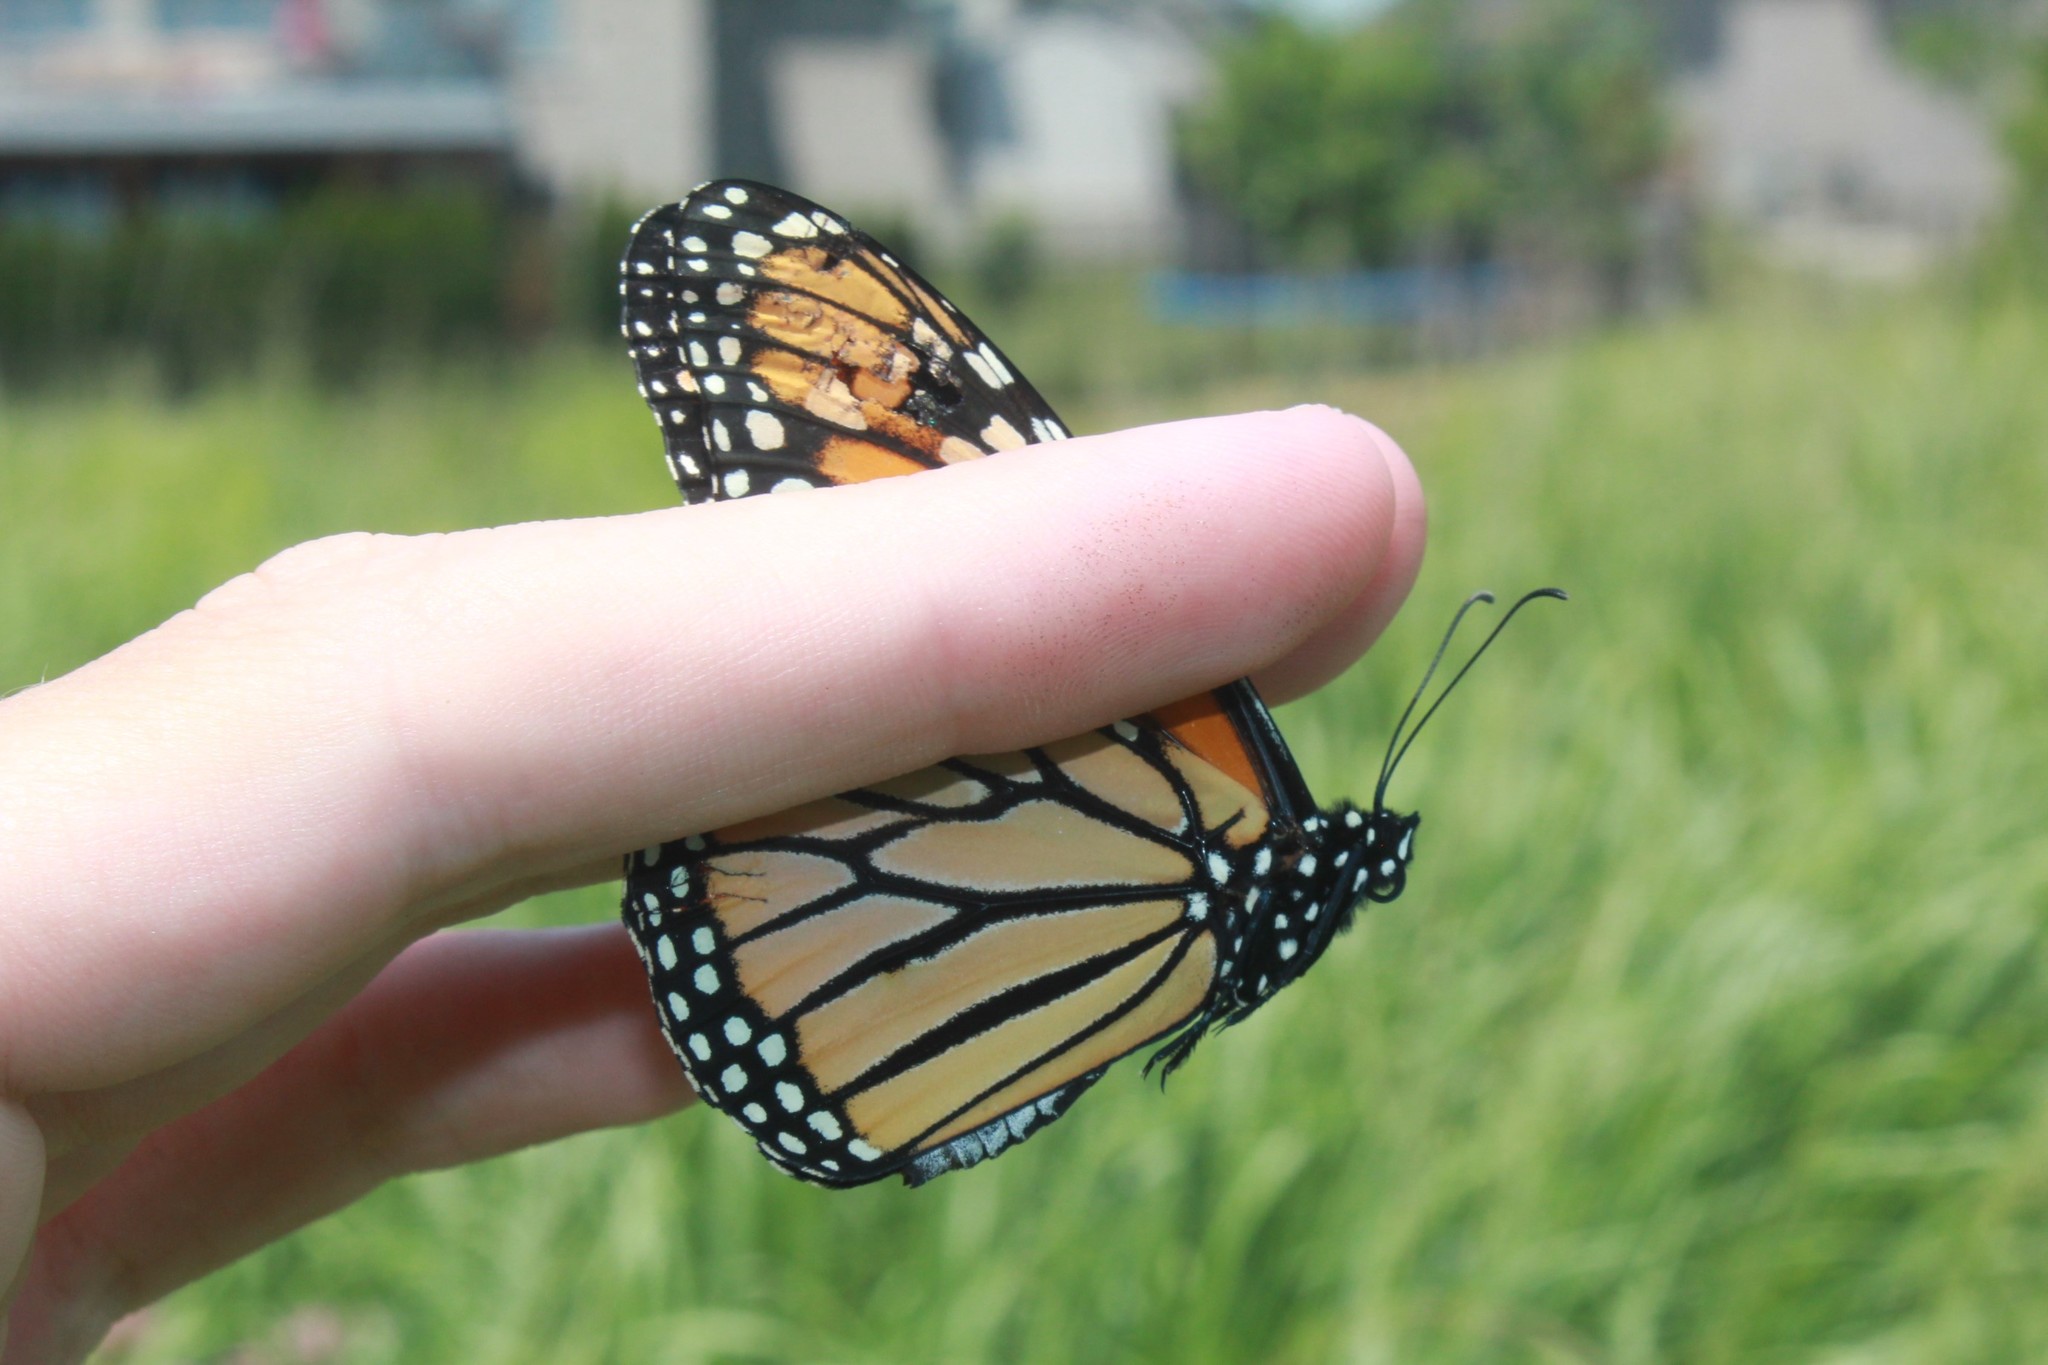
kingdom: Animalia
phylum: Arthropoda
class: Insecta
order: Lepidoptera
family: Nymphalidae
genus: Danaus
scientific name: Danaus plexippus
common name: Monarch
